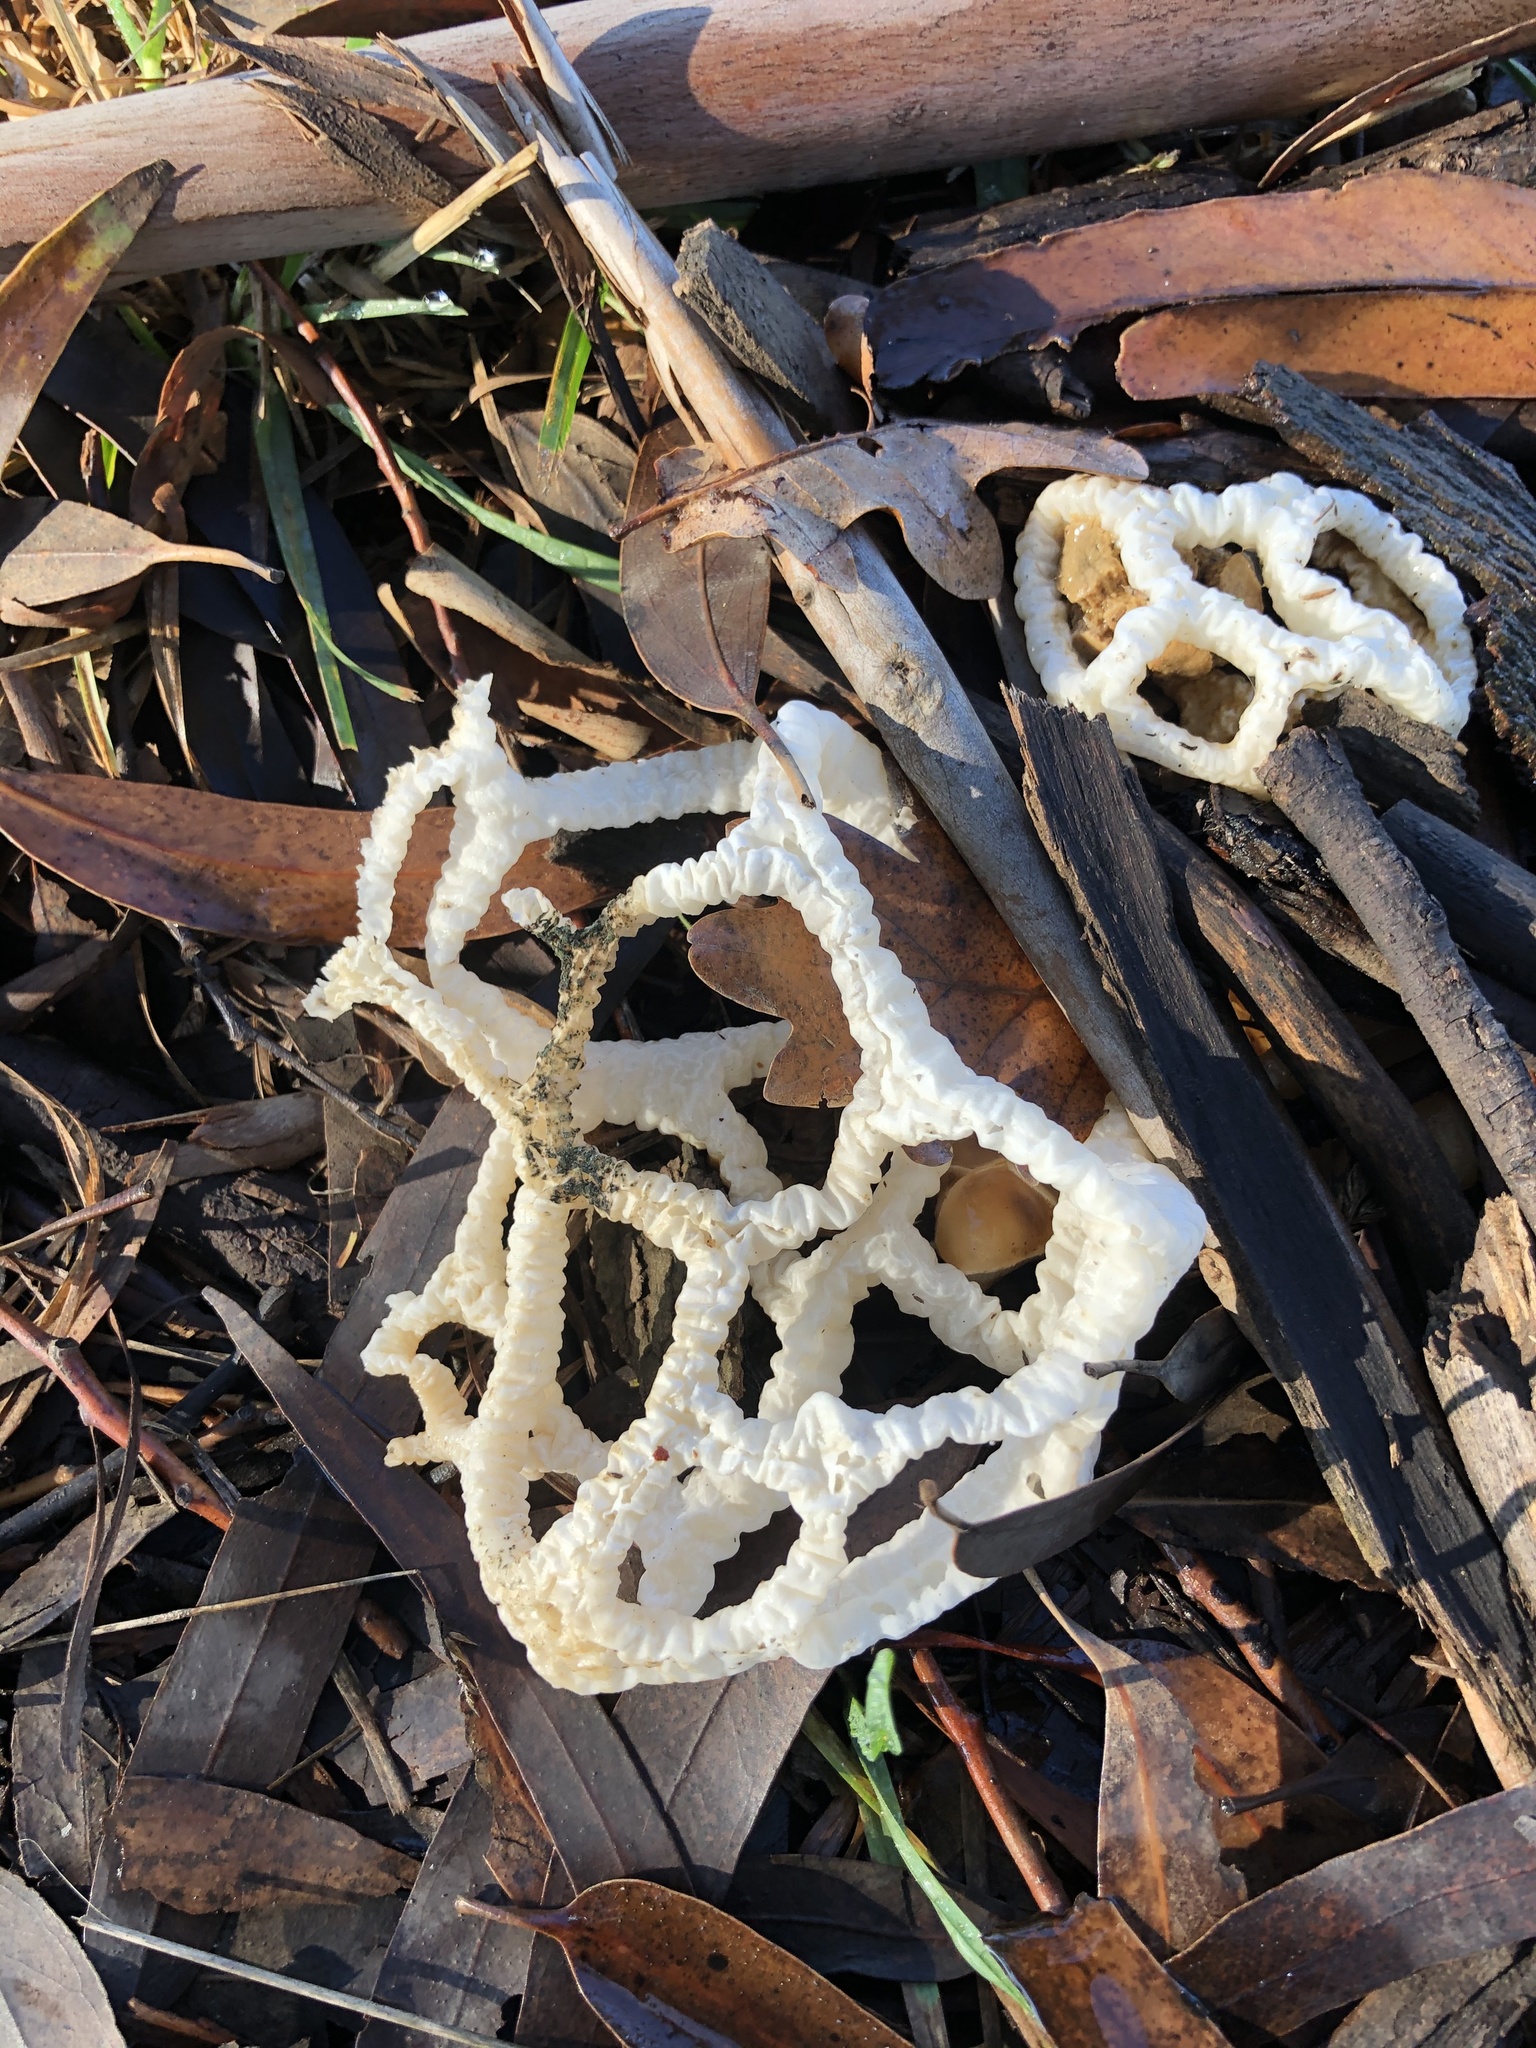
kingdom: Fungi
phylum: Basidiomycota
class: Agaricomycetes
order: Phallales
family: Phallaceae
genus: Ileodictyon
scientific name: Ileodictyon cibarium
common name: Basket fungus
